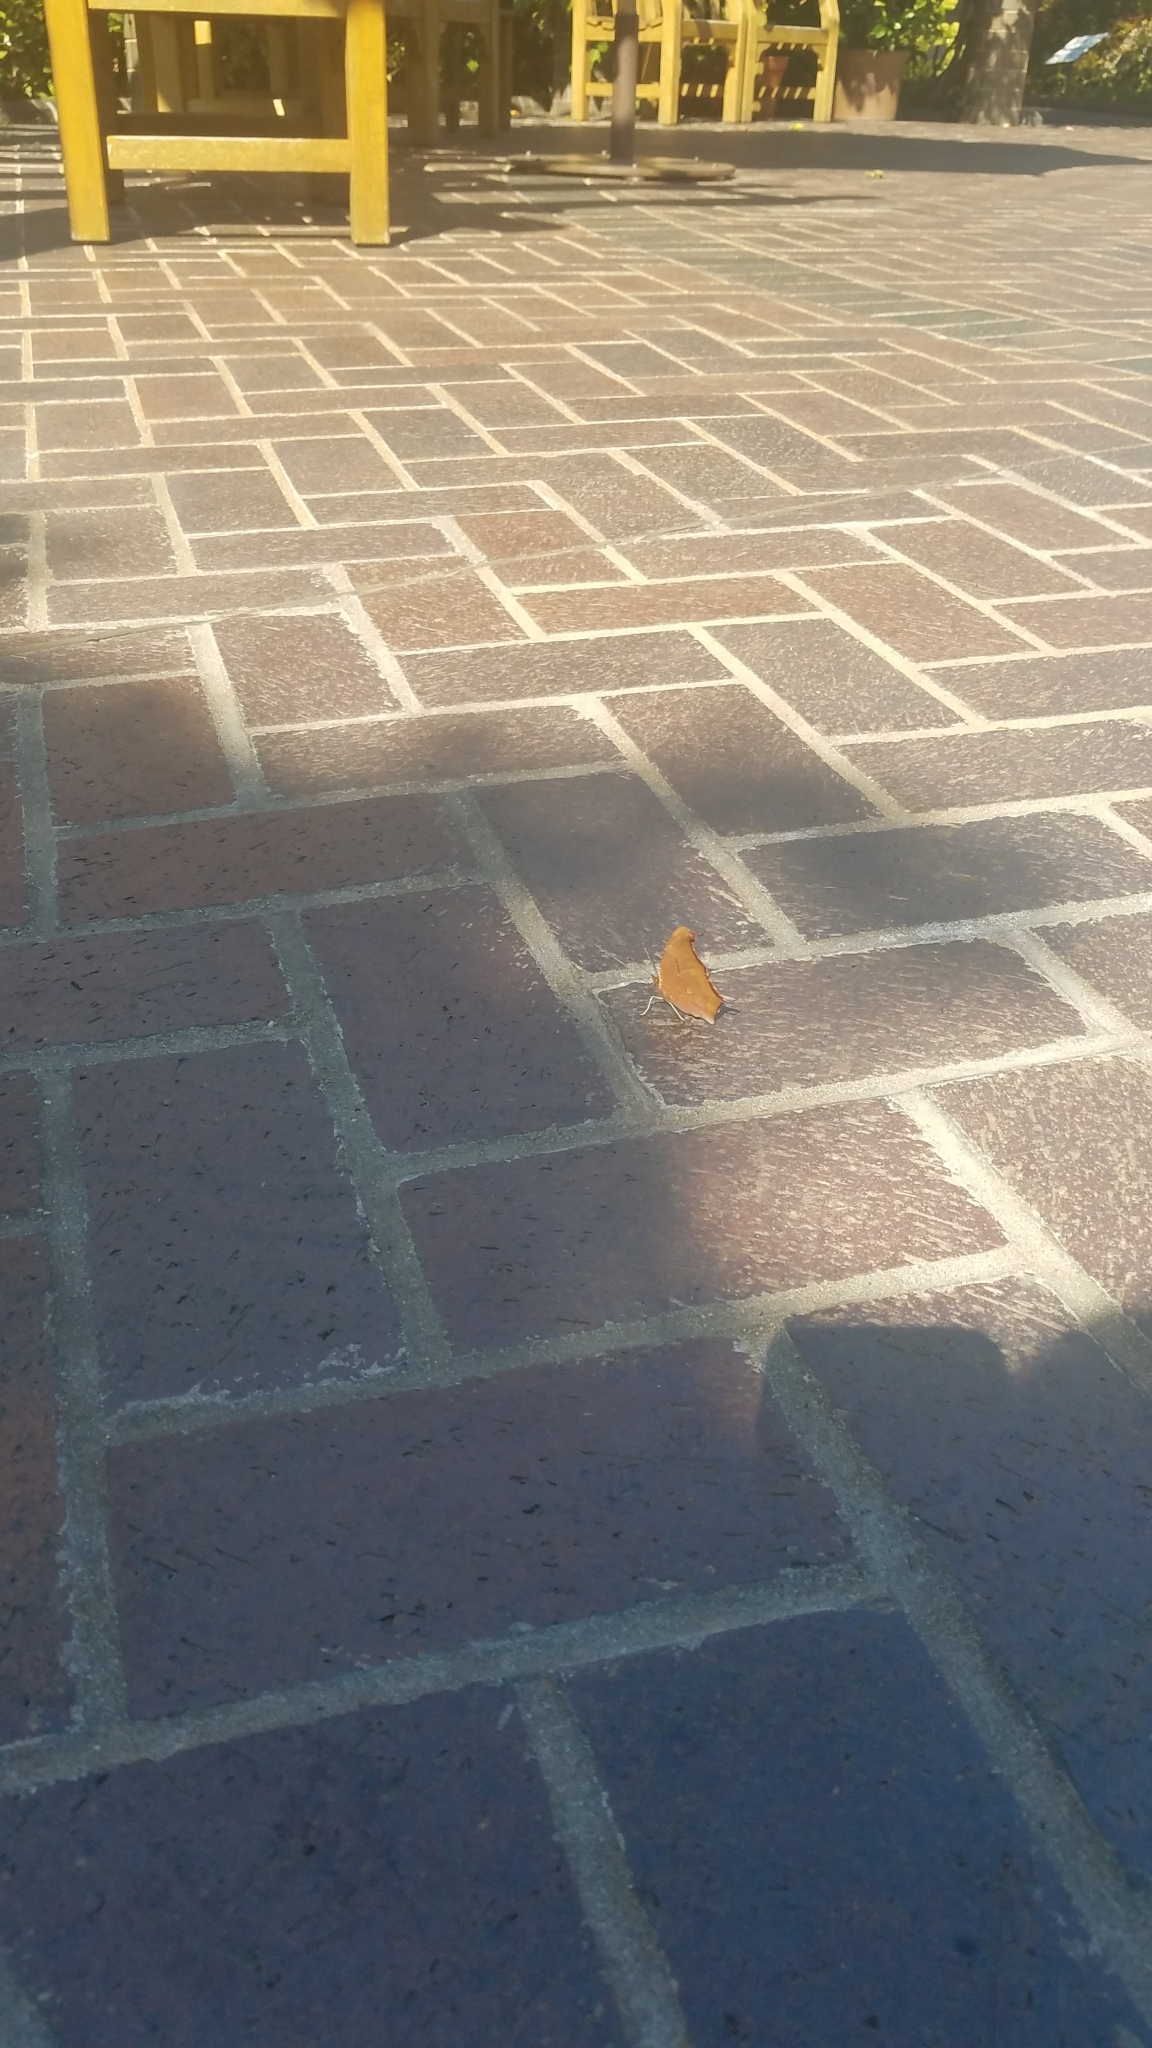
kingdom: Animalia
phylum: Arthropoda
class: Insecta
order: Lepidoptera
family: Nymphalidae
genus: Polygonia
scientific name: Polygonia interrogationis
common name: Question mark
